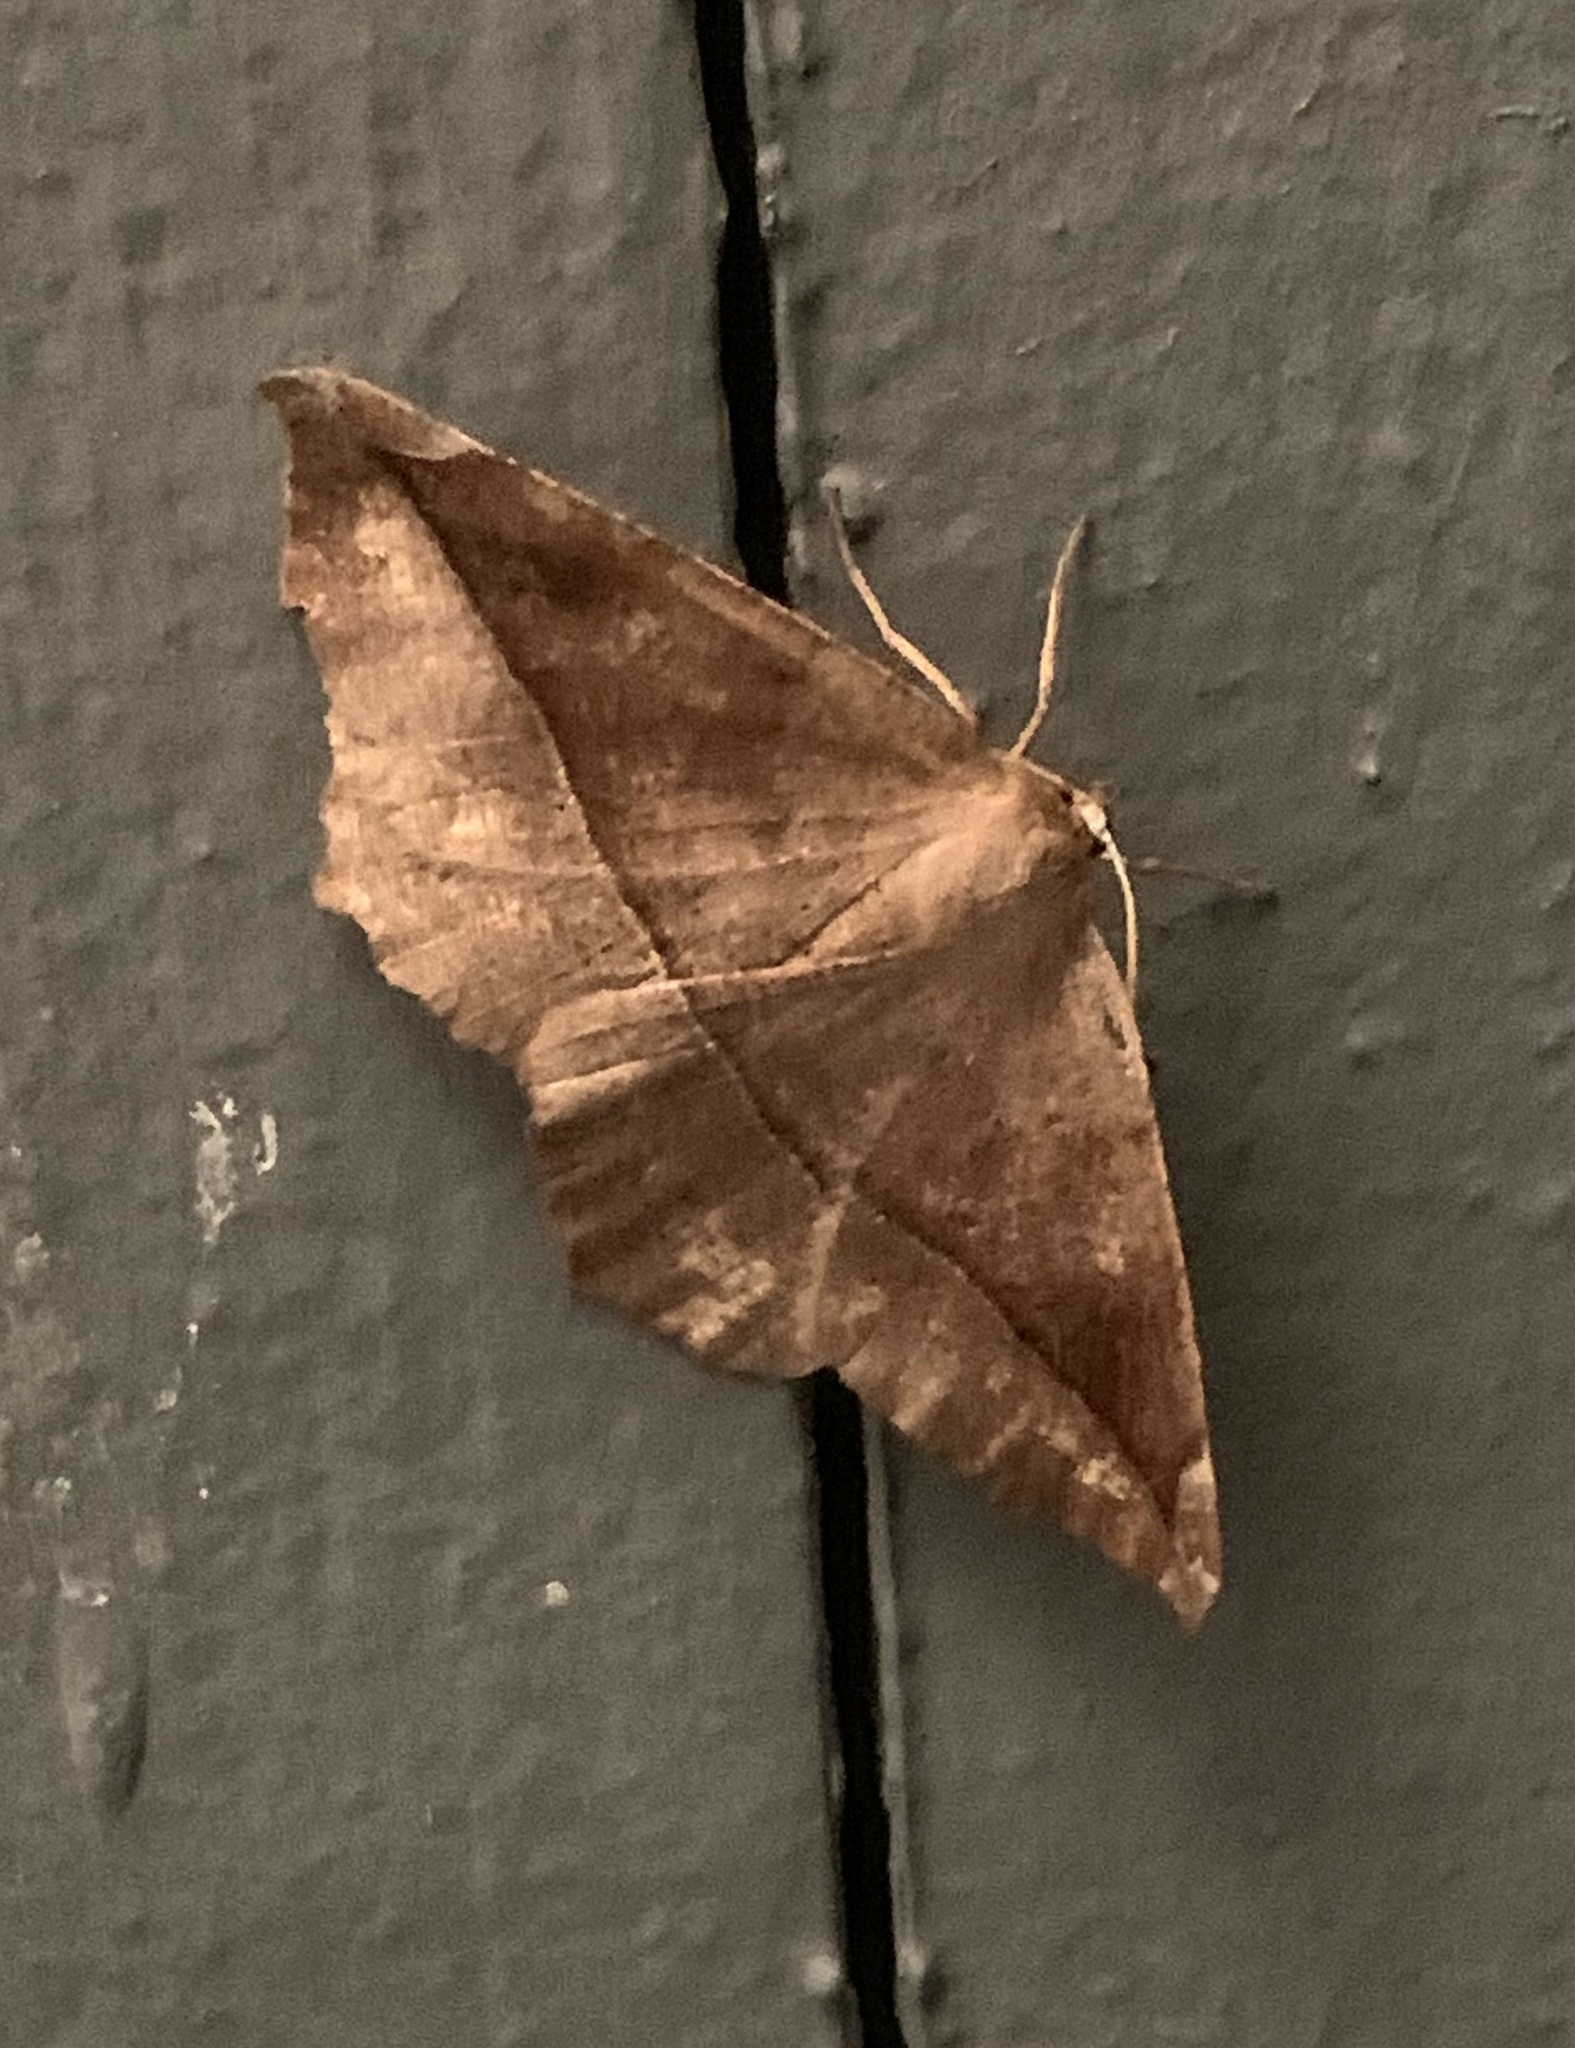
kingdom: Animalia
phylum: Arthropoda
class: Insecta
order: Lepidoptera
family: Geometridae
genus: Eutrapela
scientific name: Eutrapela clemataria
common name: Curved-toothed geometer
